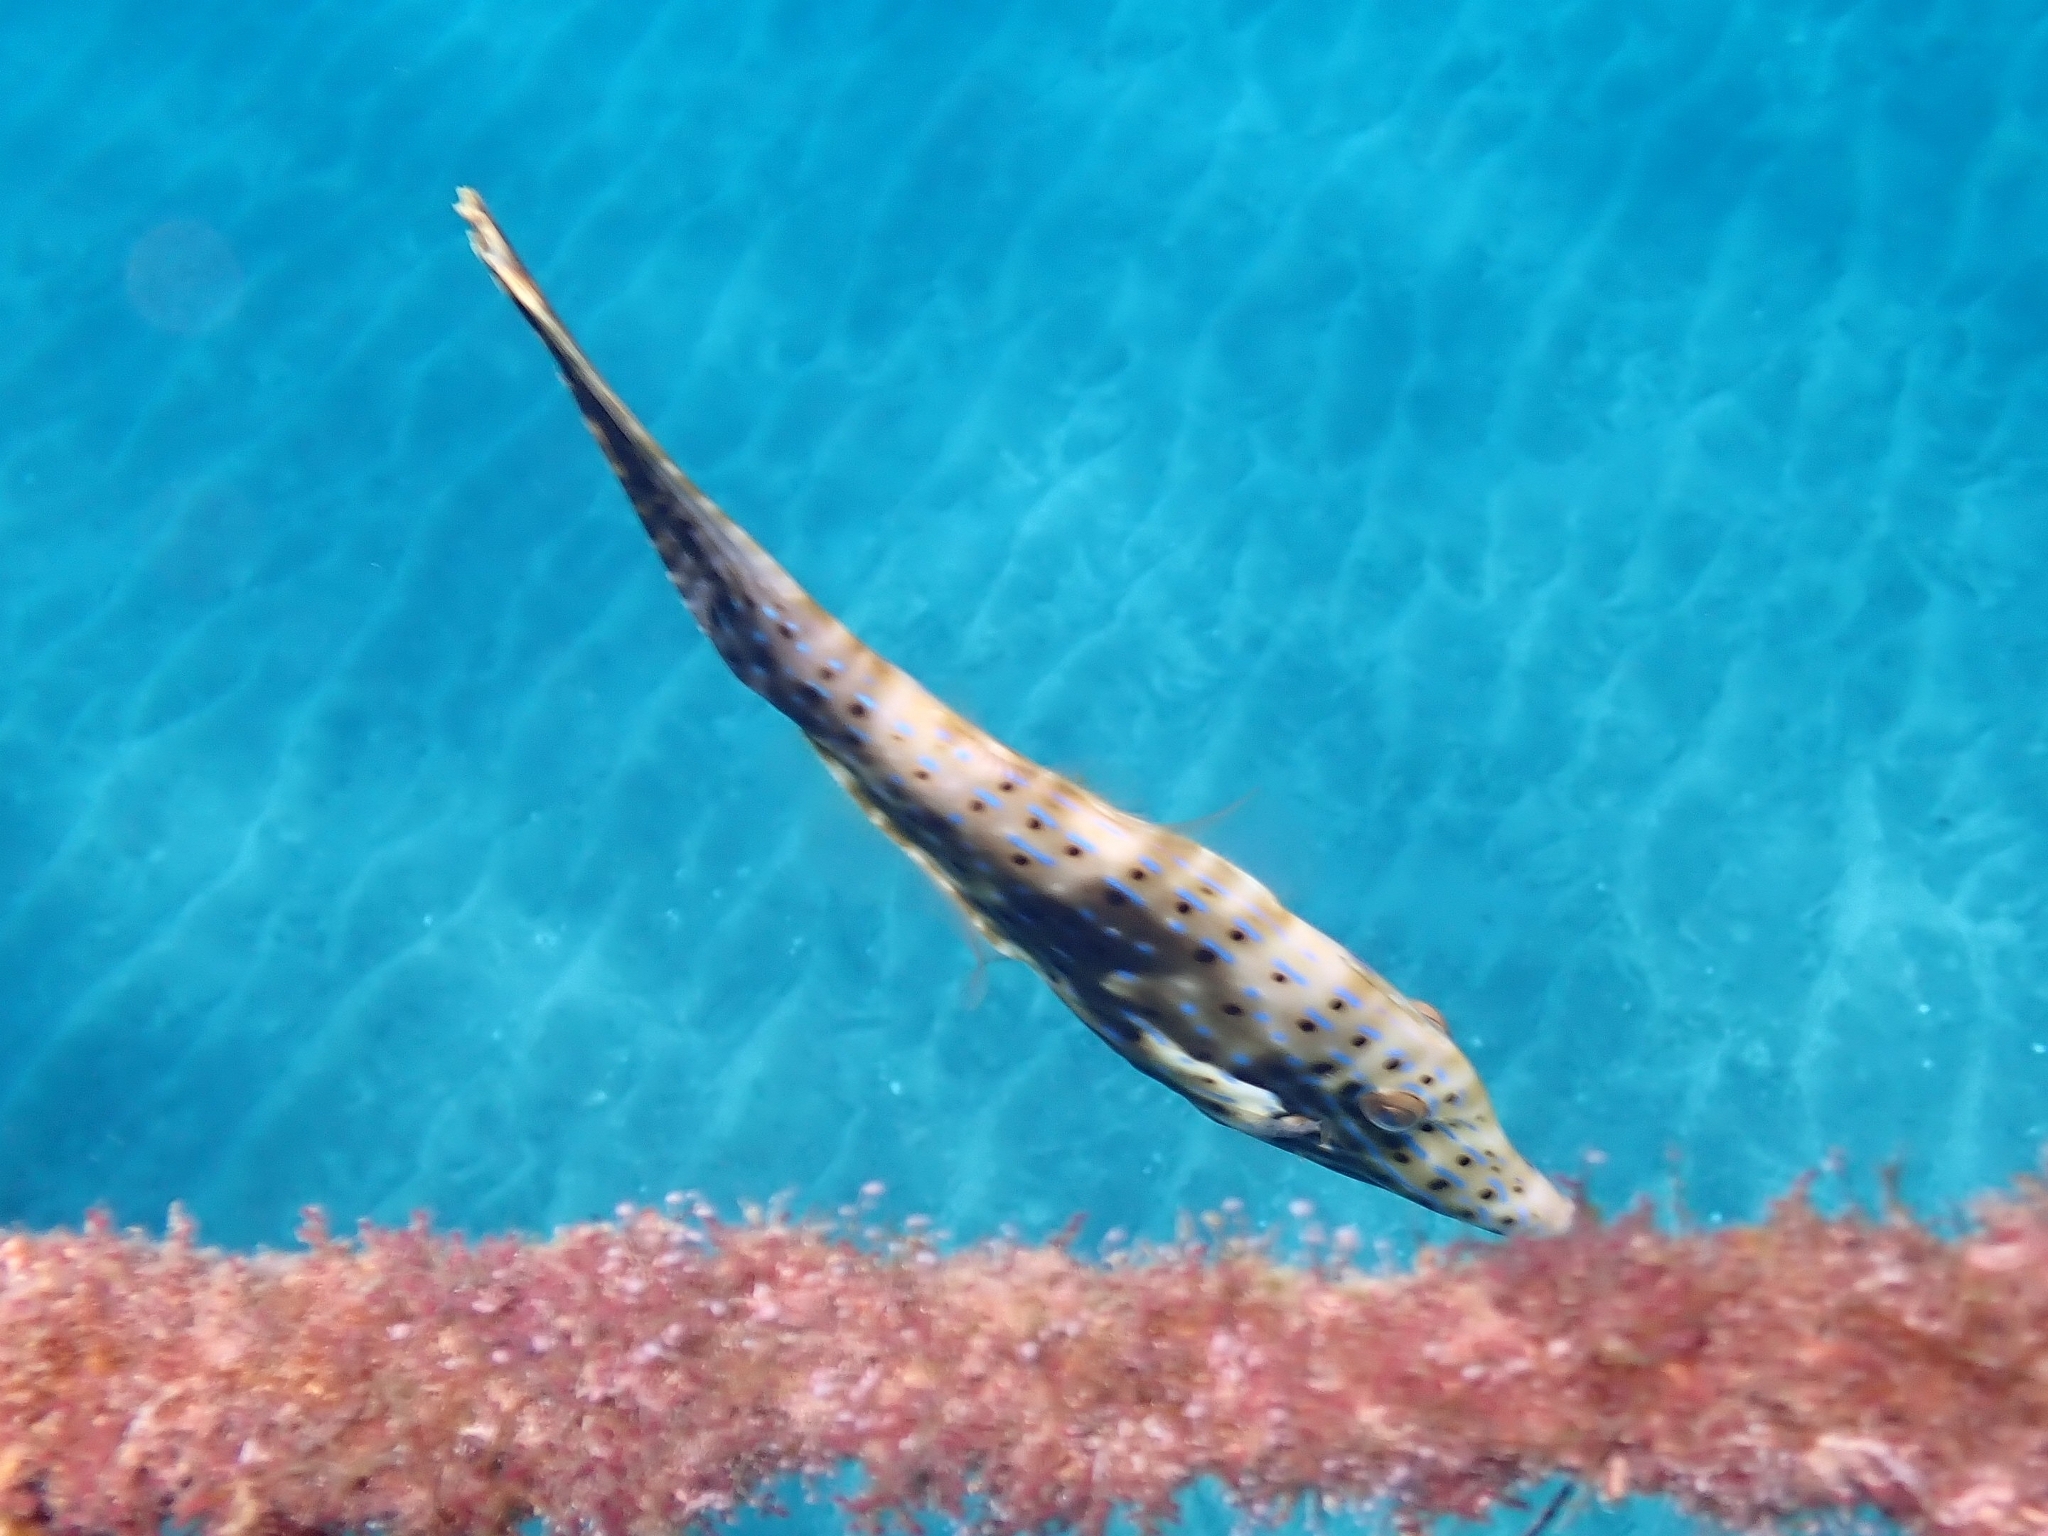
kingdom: Animalia
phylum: Chordata
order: Tetraodontiformes
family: Monacanthidae
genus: Aluterus
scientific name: Aluterus scriptus
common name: Scribbled leatherjacket filefish
